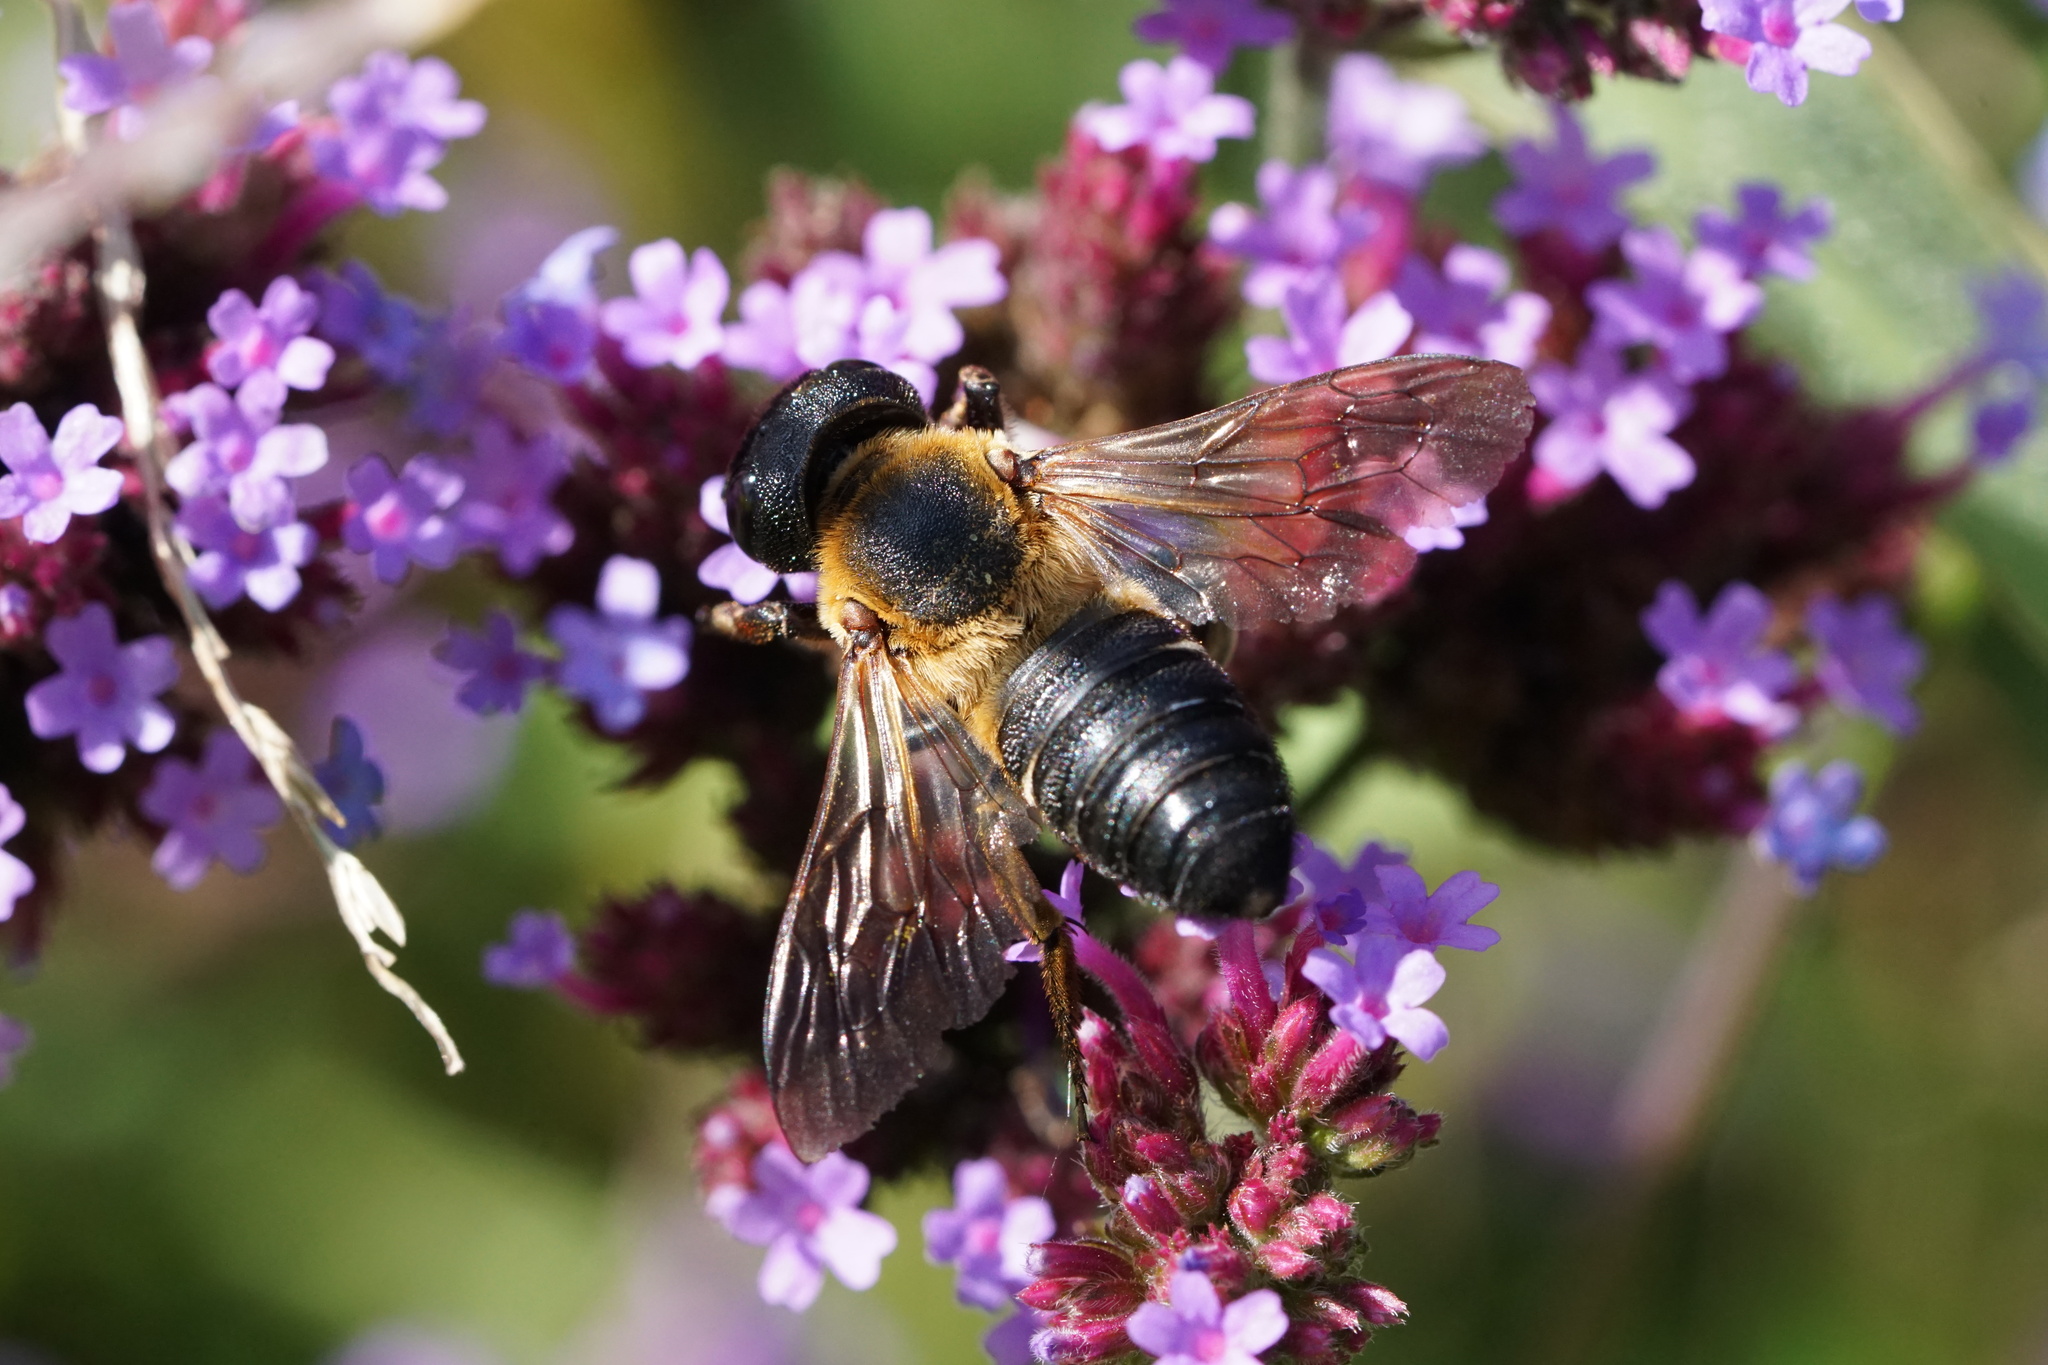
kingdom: Animalia
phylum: Arthropoda
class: Insecta
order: Hymenoptera
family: Megachilidae
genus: Megachile
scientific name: Megachile sculpturalis
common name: Sculptured resin bee
